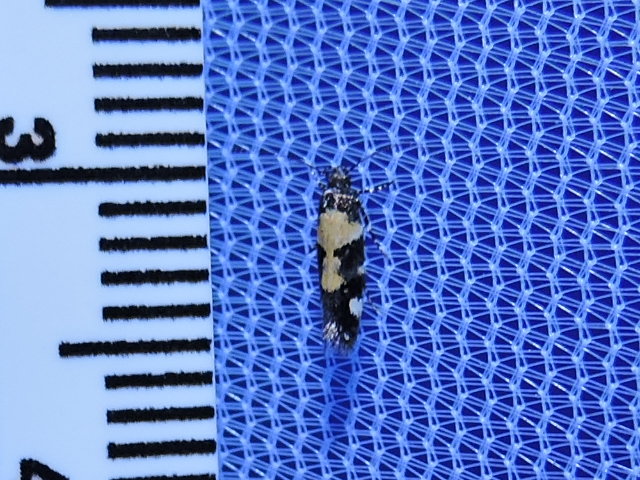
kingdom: Animalia
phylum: Arthropoda
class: Insecta
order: Lepidoptera
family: Gelechiidae
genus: Stegasta
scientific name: Stegasta bosqueella
